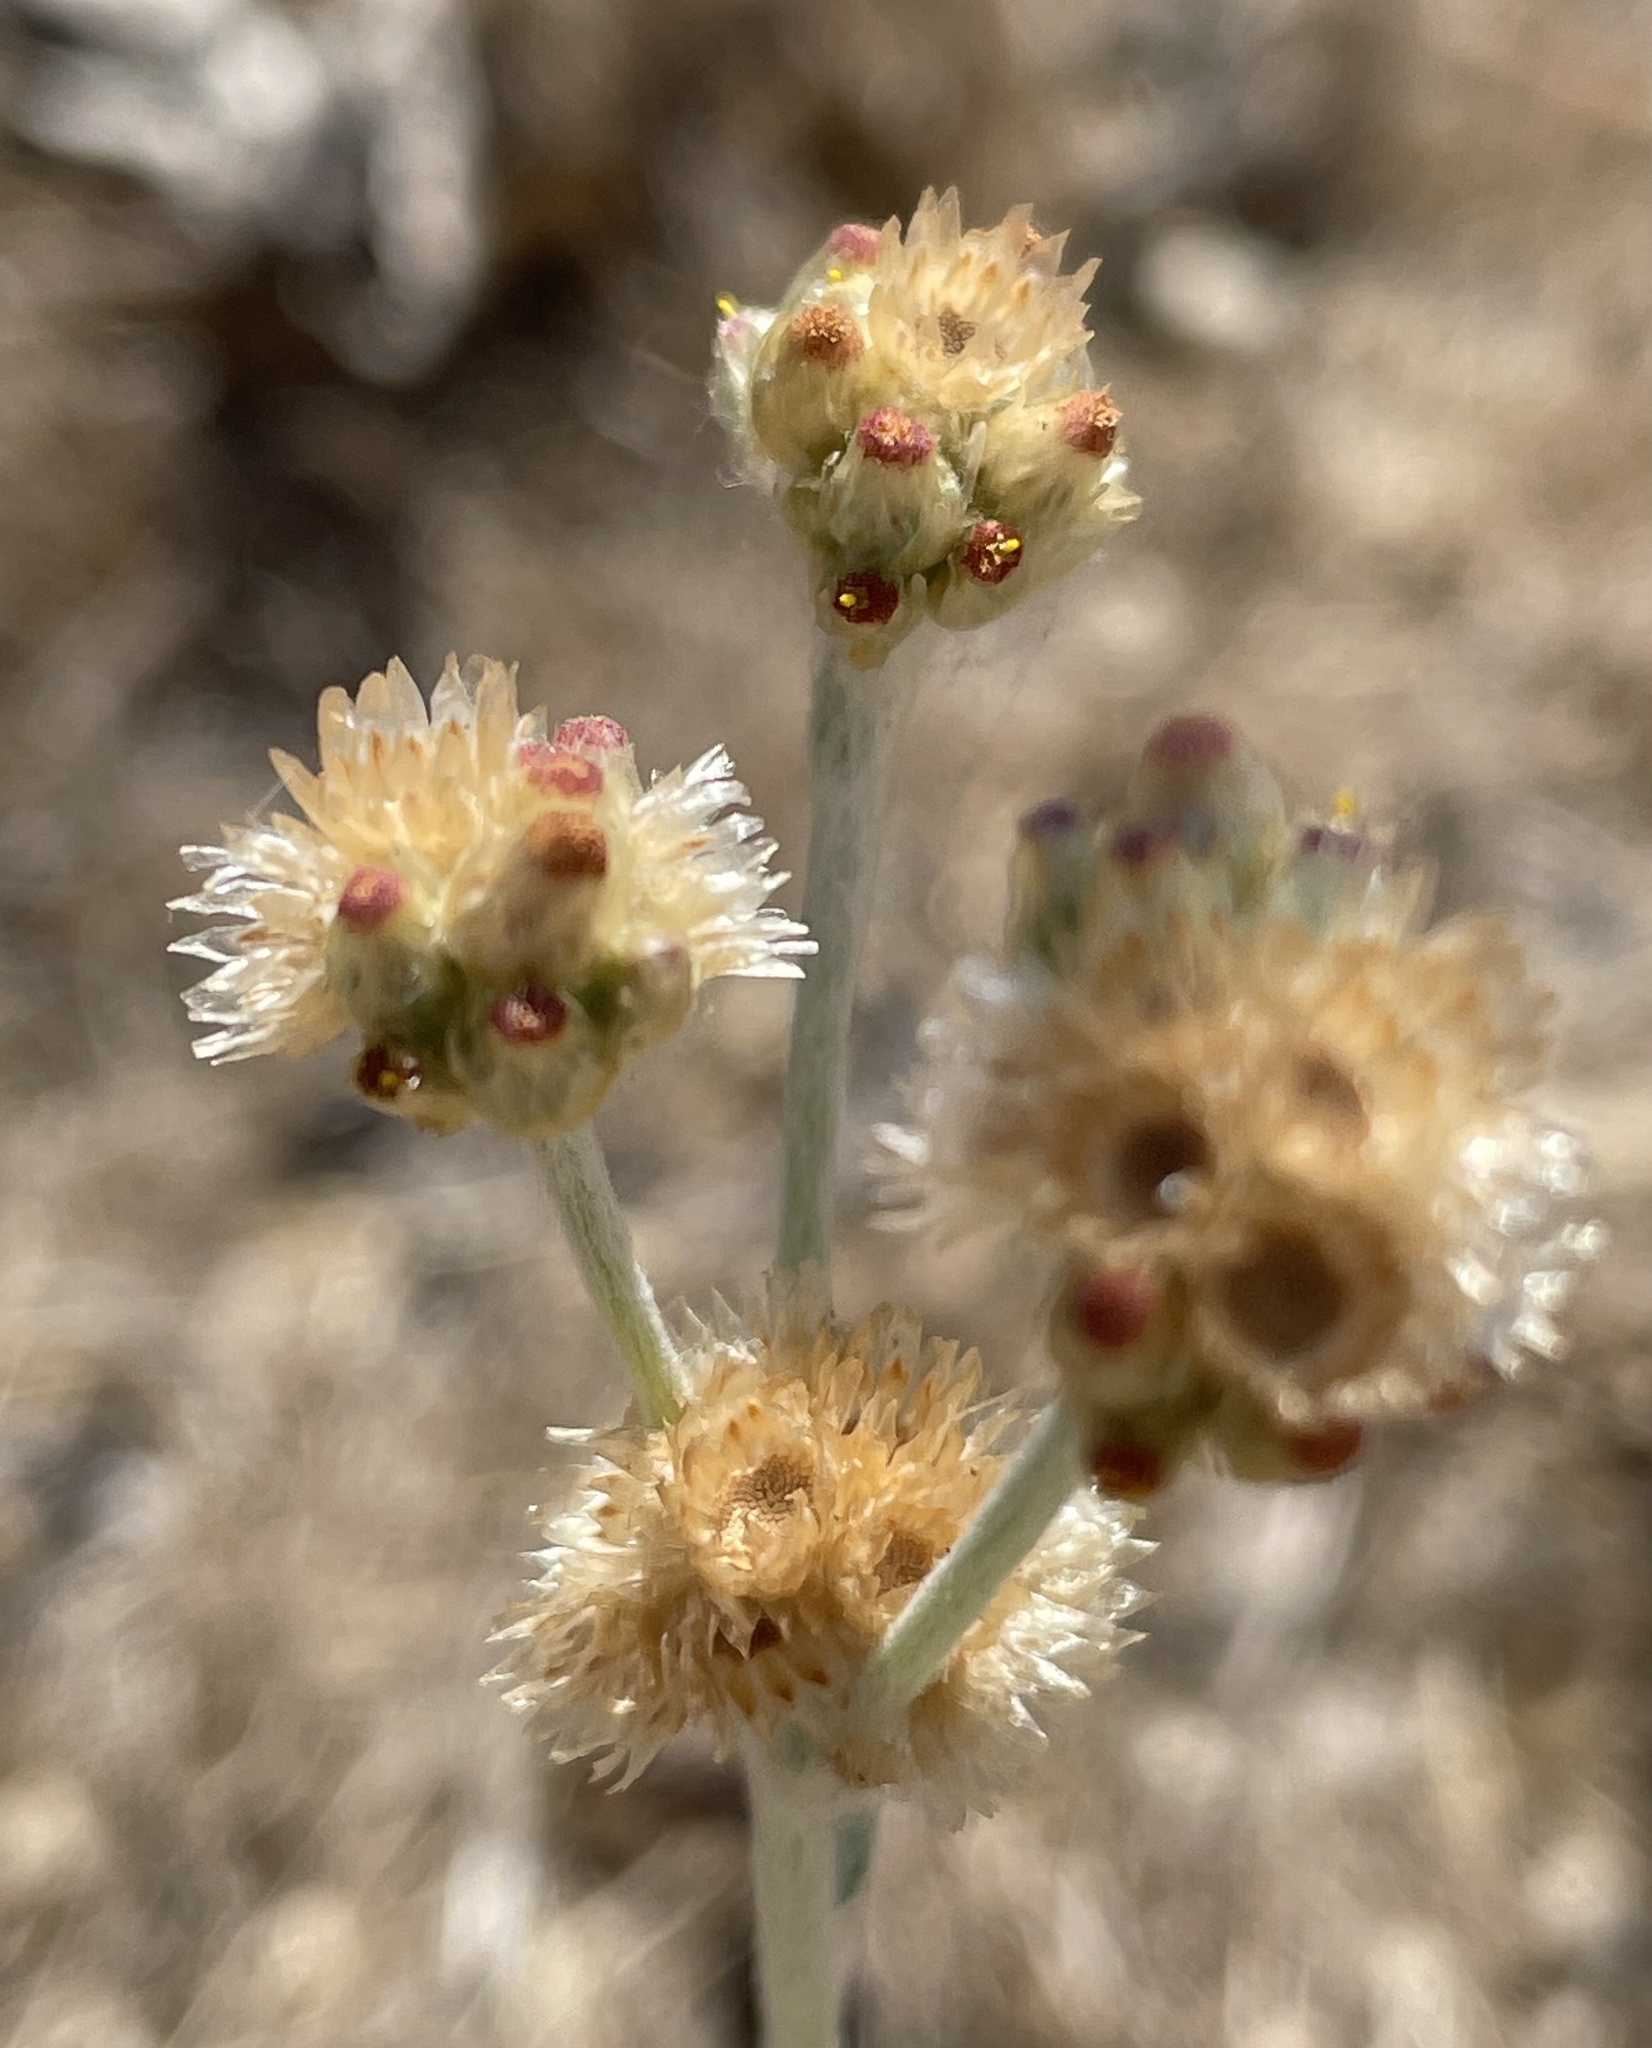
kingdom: Plantae
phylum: Tracheophyta
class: Magnoliopsida
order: Asterales
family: Asteraceae
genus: Helichrysum
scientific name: Helichrysum luteoalbum
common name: Daisy
